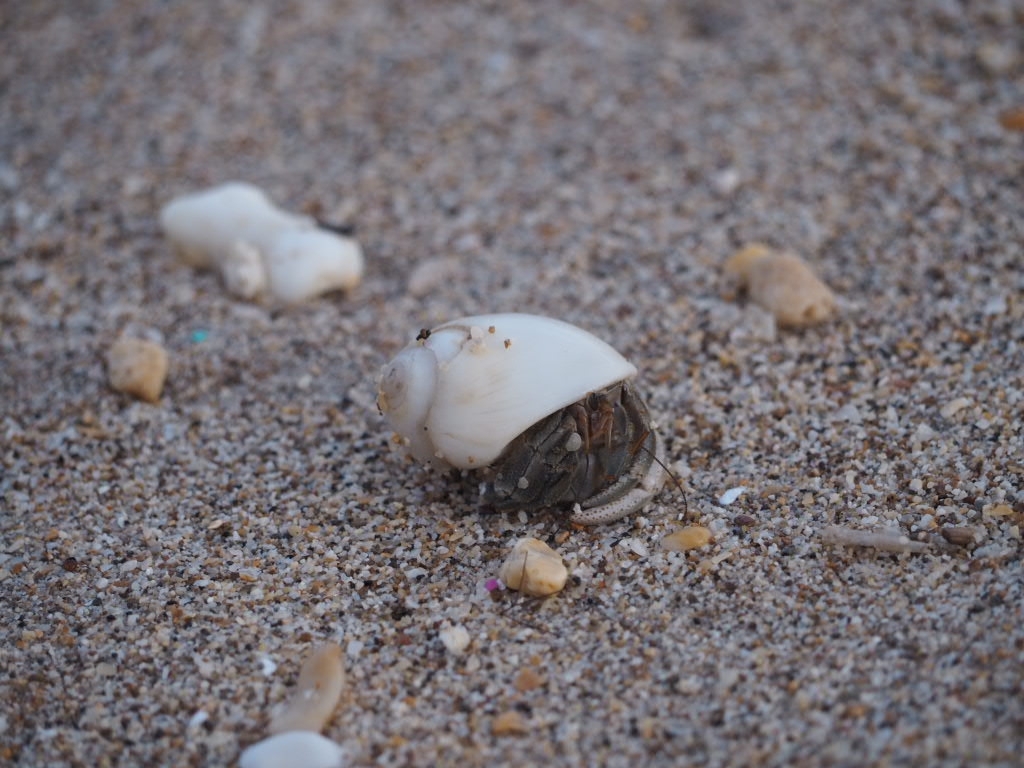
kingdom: Animalia
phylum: Arthropoda
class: Malacostraca
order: Decapoda
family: Coenobitidae
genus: Coenobita
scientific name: Coenobita rugosus
